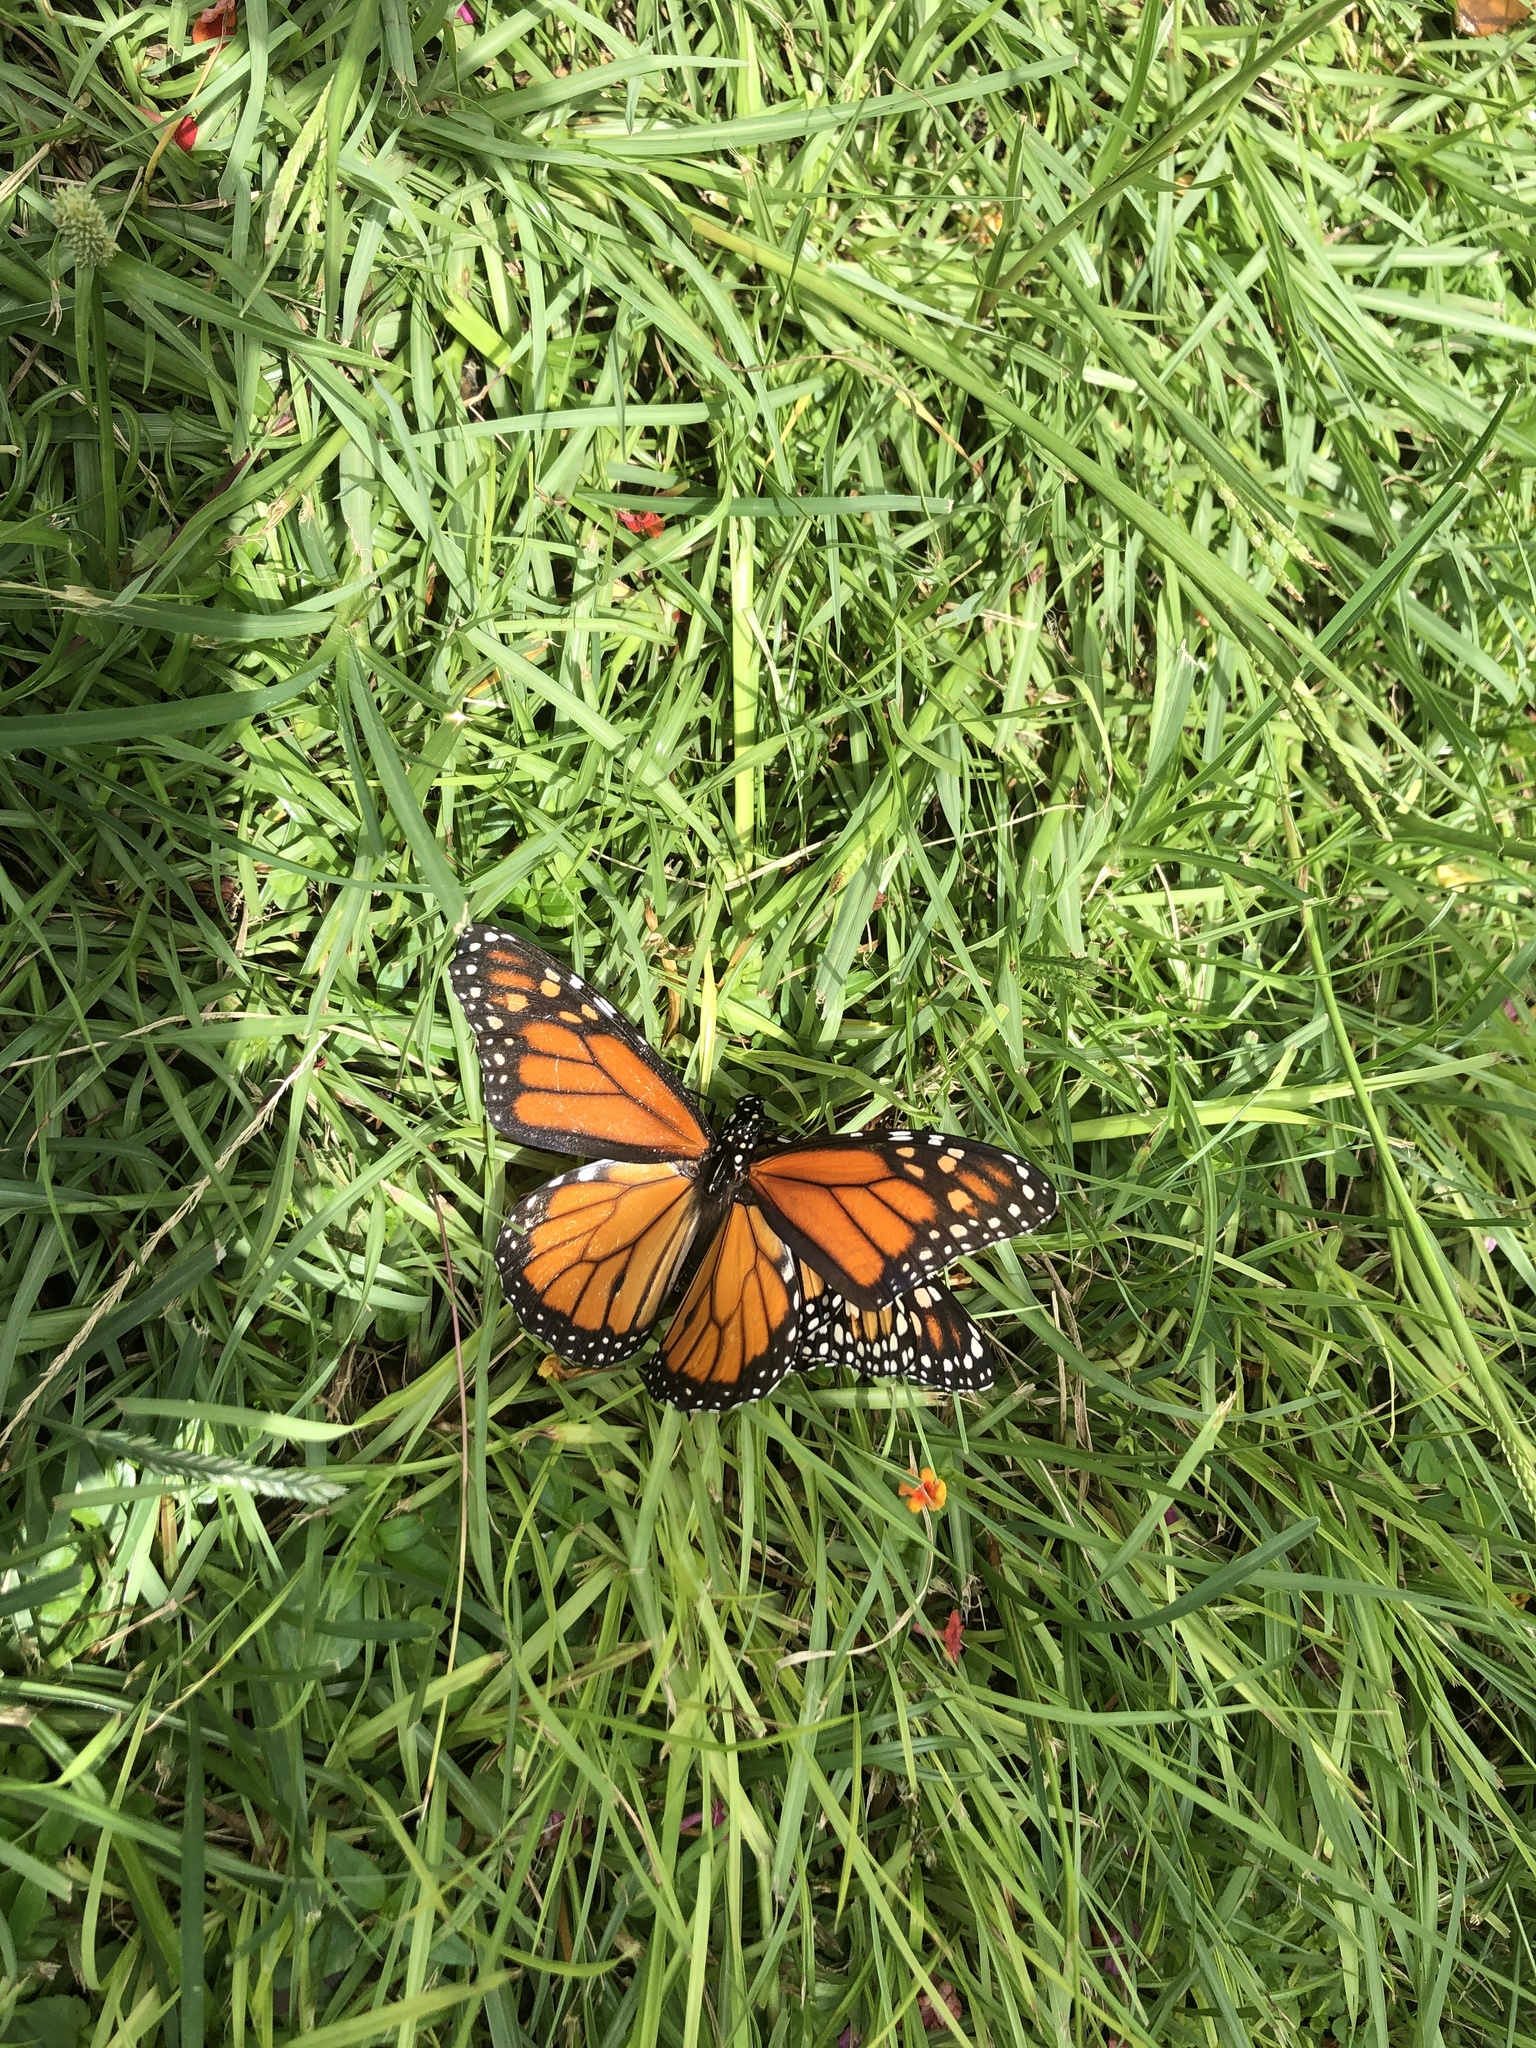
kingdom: Animalia
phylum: Arthropoda
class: Insecta
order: Lepidoptera
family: Nymphalidae
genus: Danaus
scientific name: Danaus plexippus
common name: Monarch
